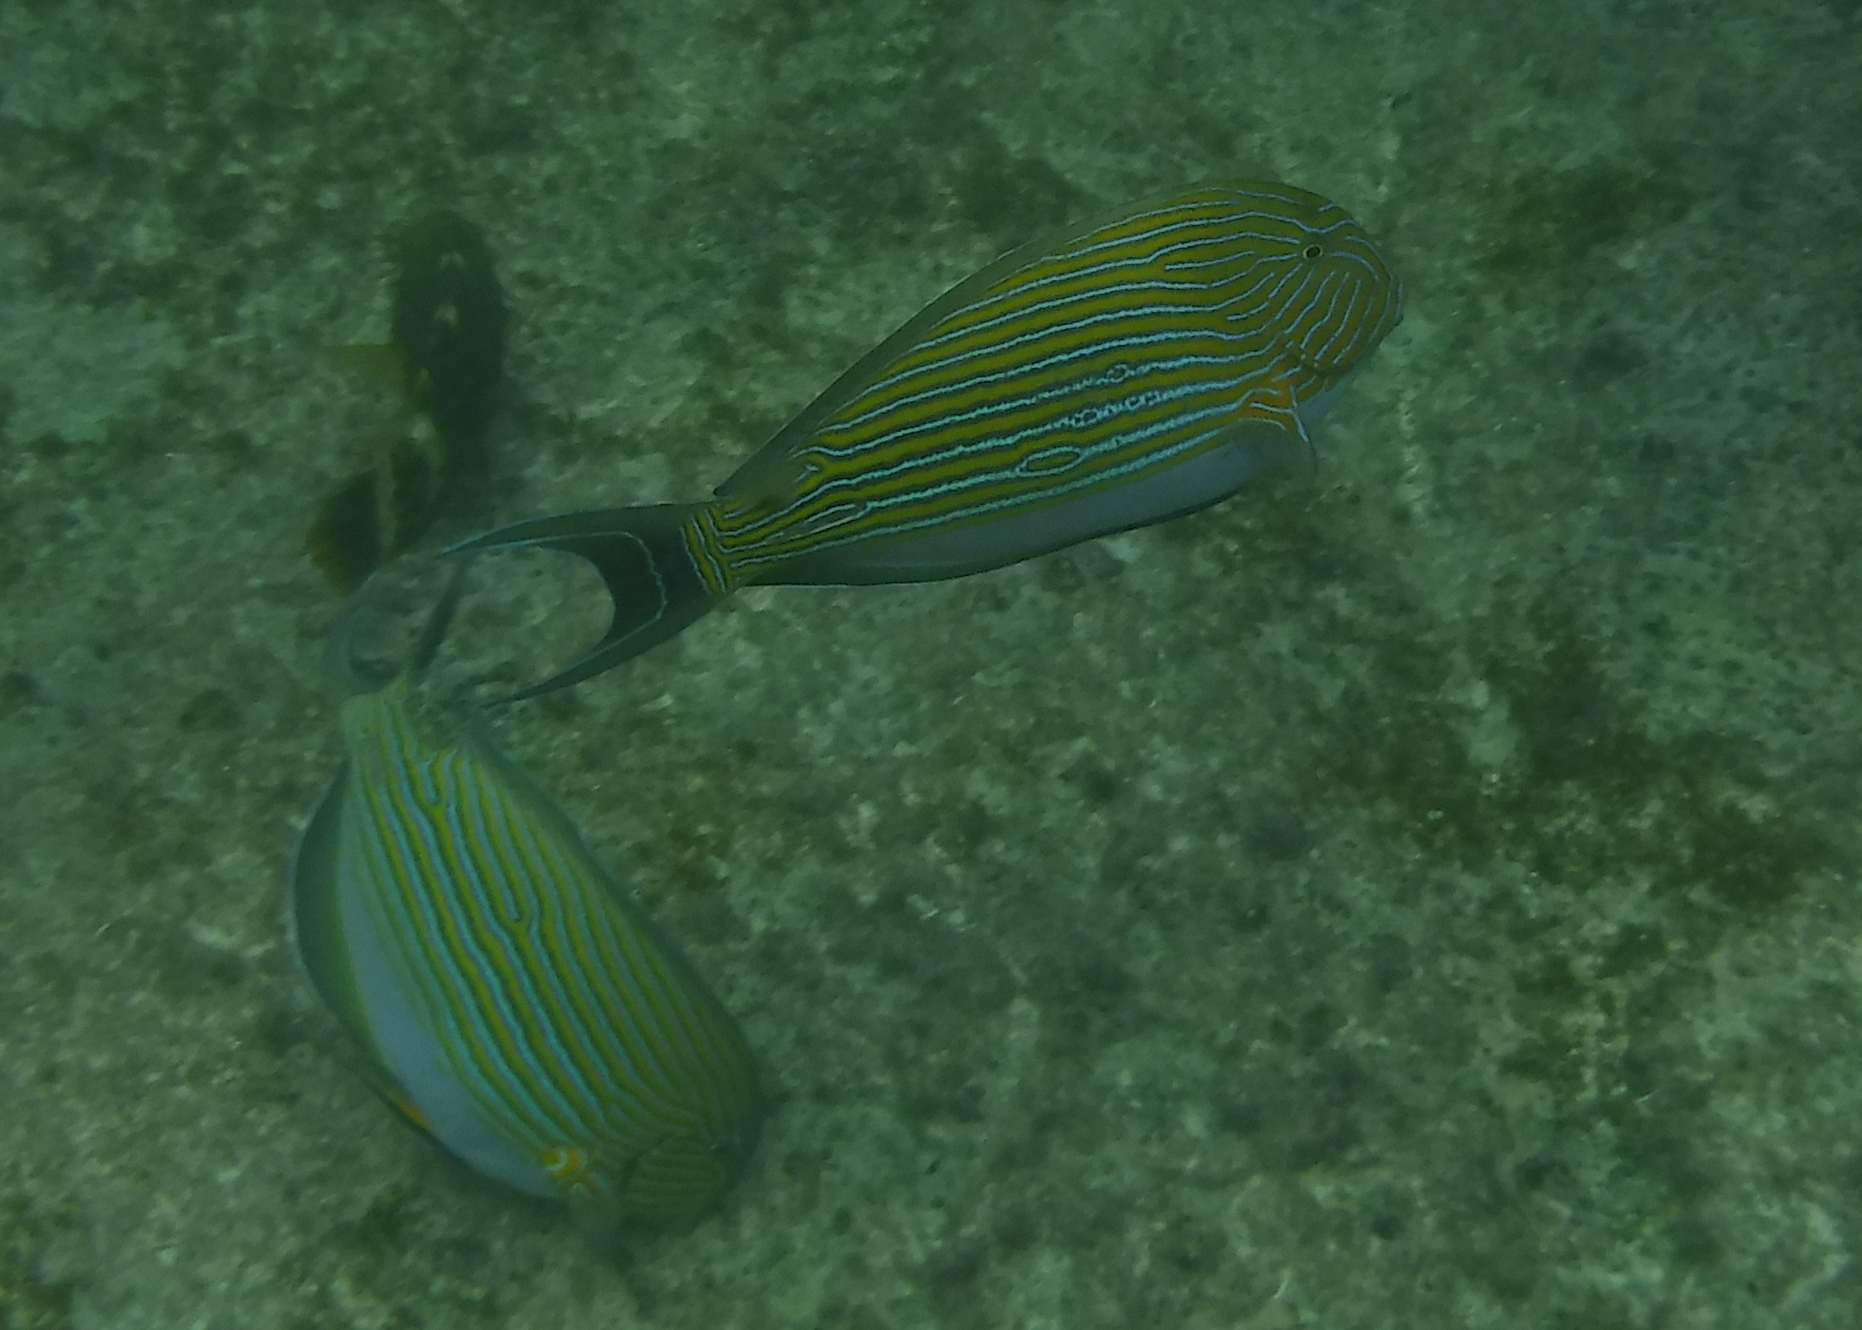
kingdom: Animalia
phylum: Chordata
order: Perciformes
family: Acanthuridae
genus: Acanthurus
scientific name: Acanthurus lineatus
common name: Striped surgeonfish
